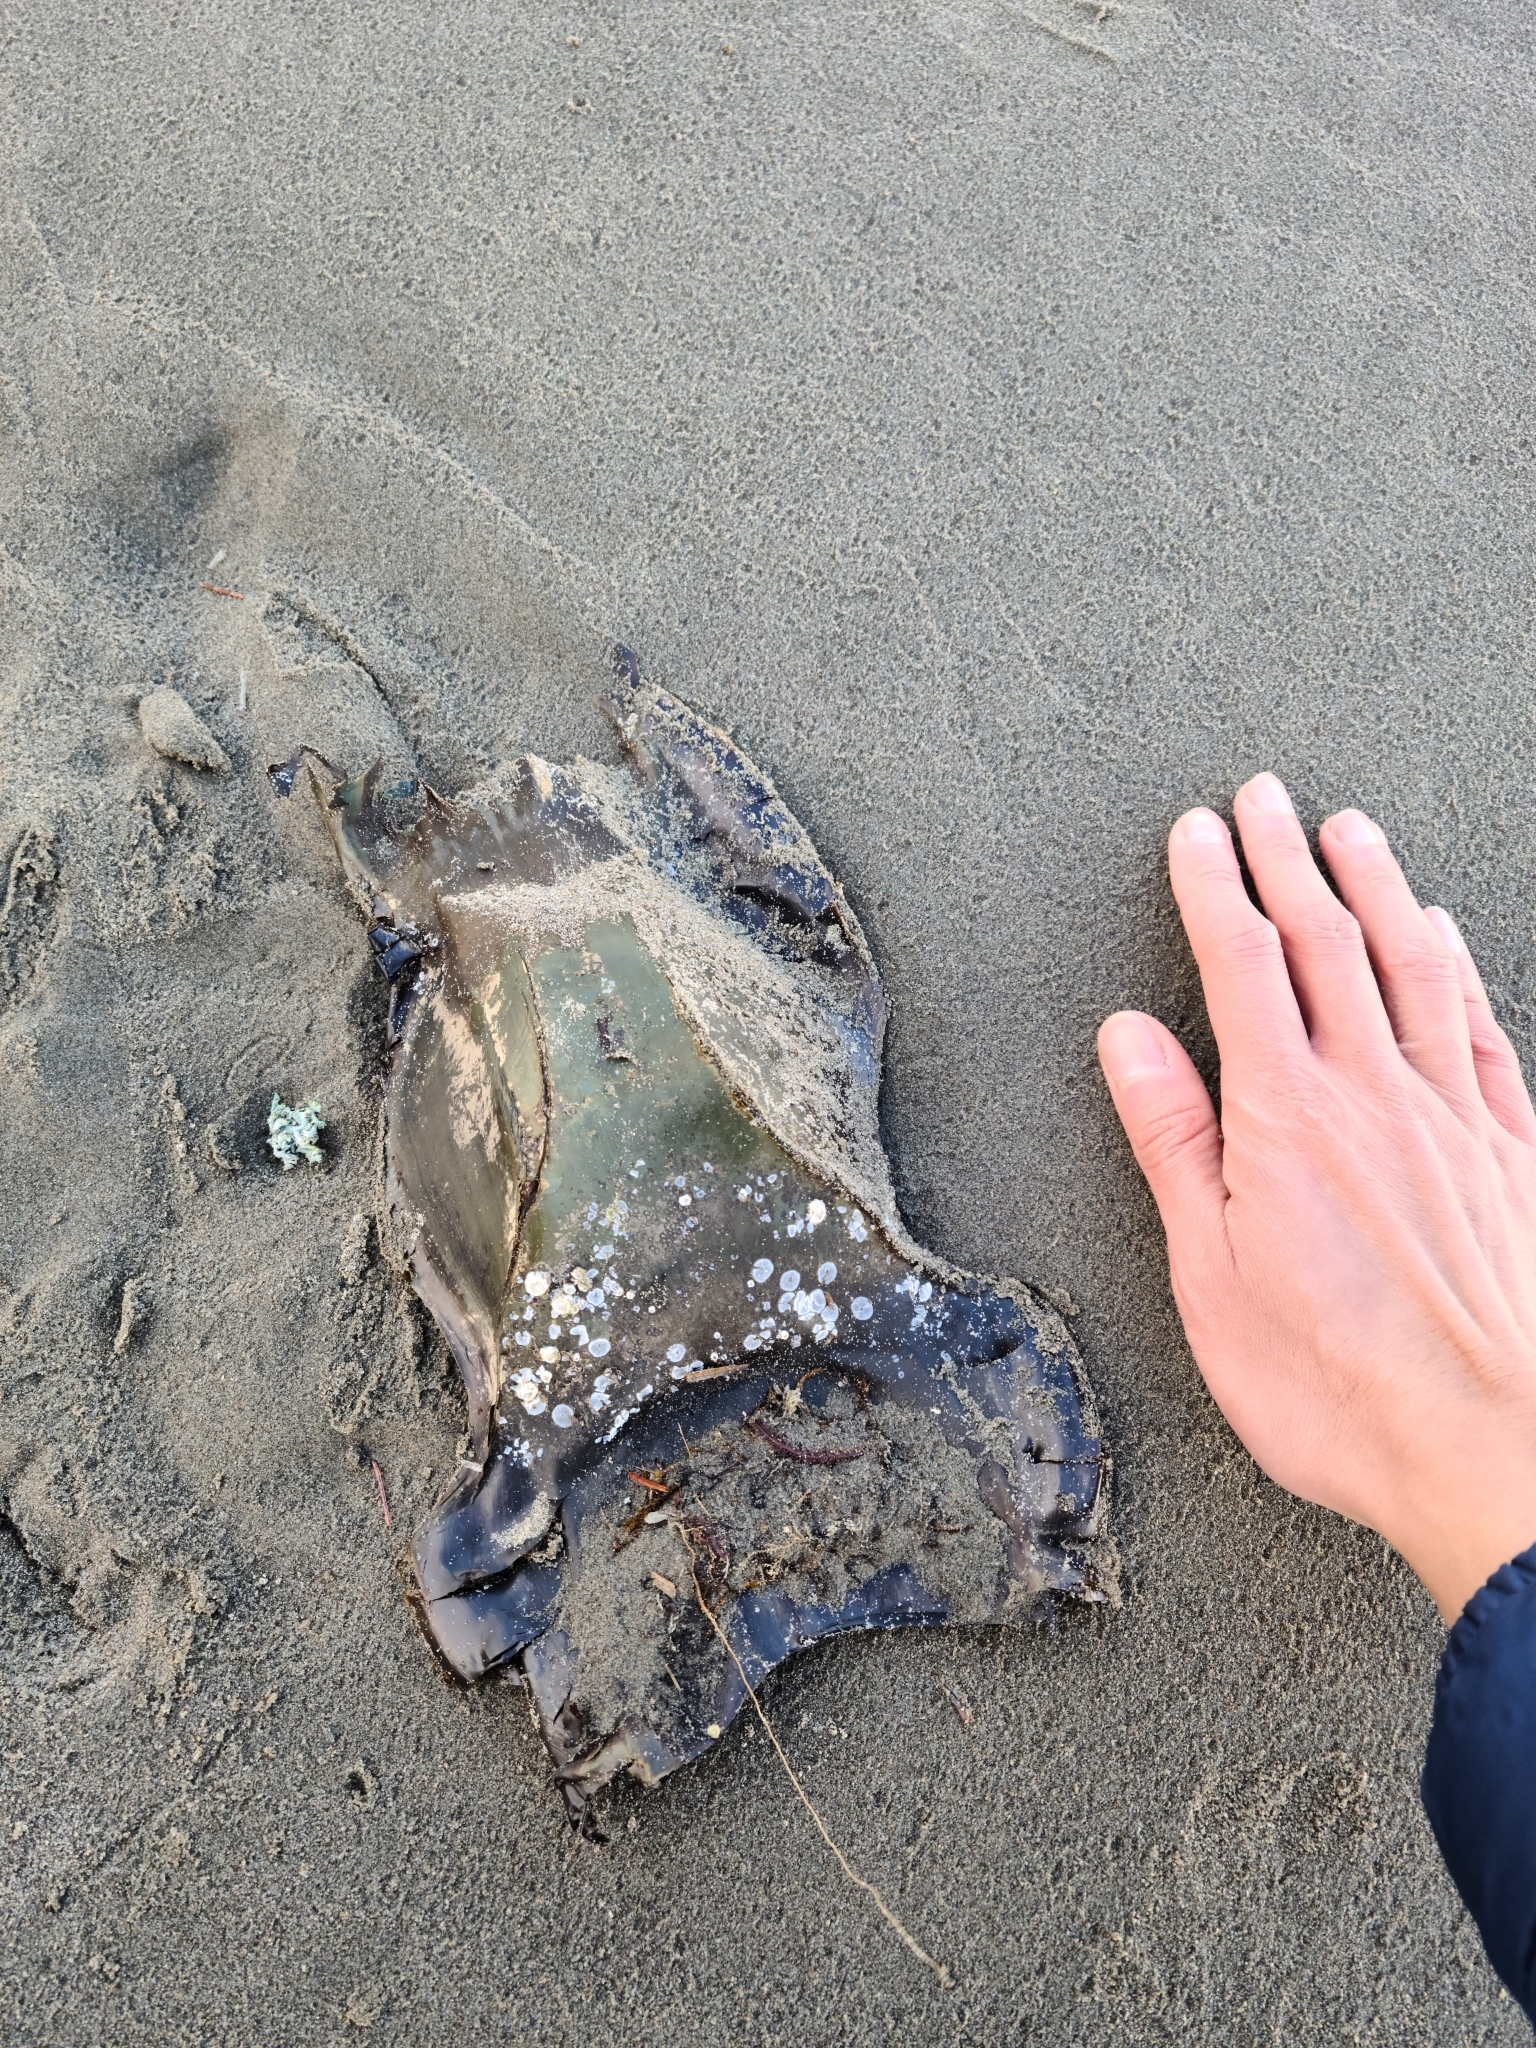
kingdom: Animalia
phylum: Chordata
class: Elasmobranchii
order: Rajiformes
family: Rajidae
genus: Beringraja
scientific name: Beringraja binoculata
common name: Big skate
